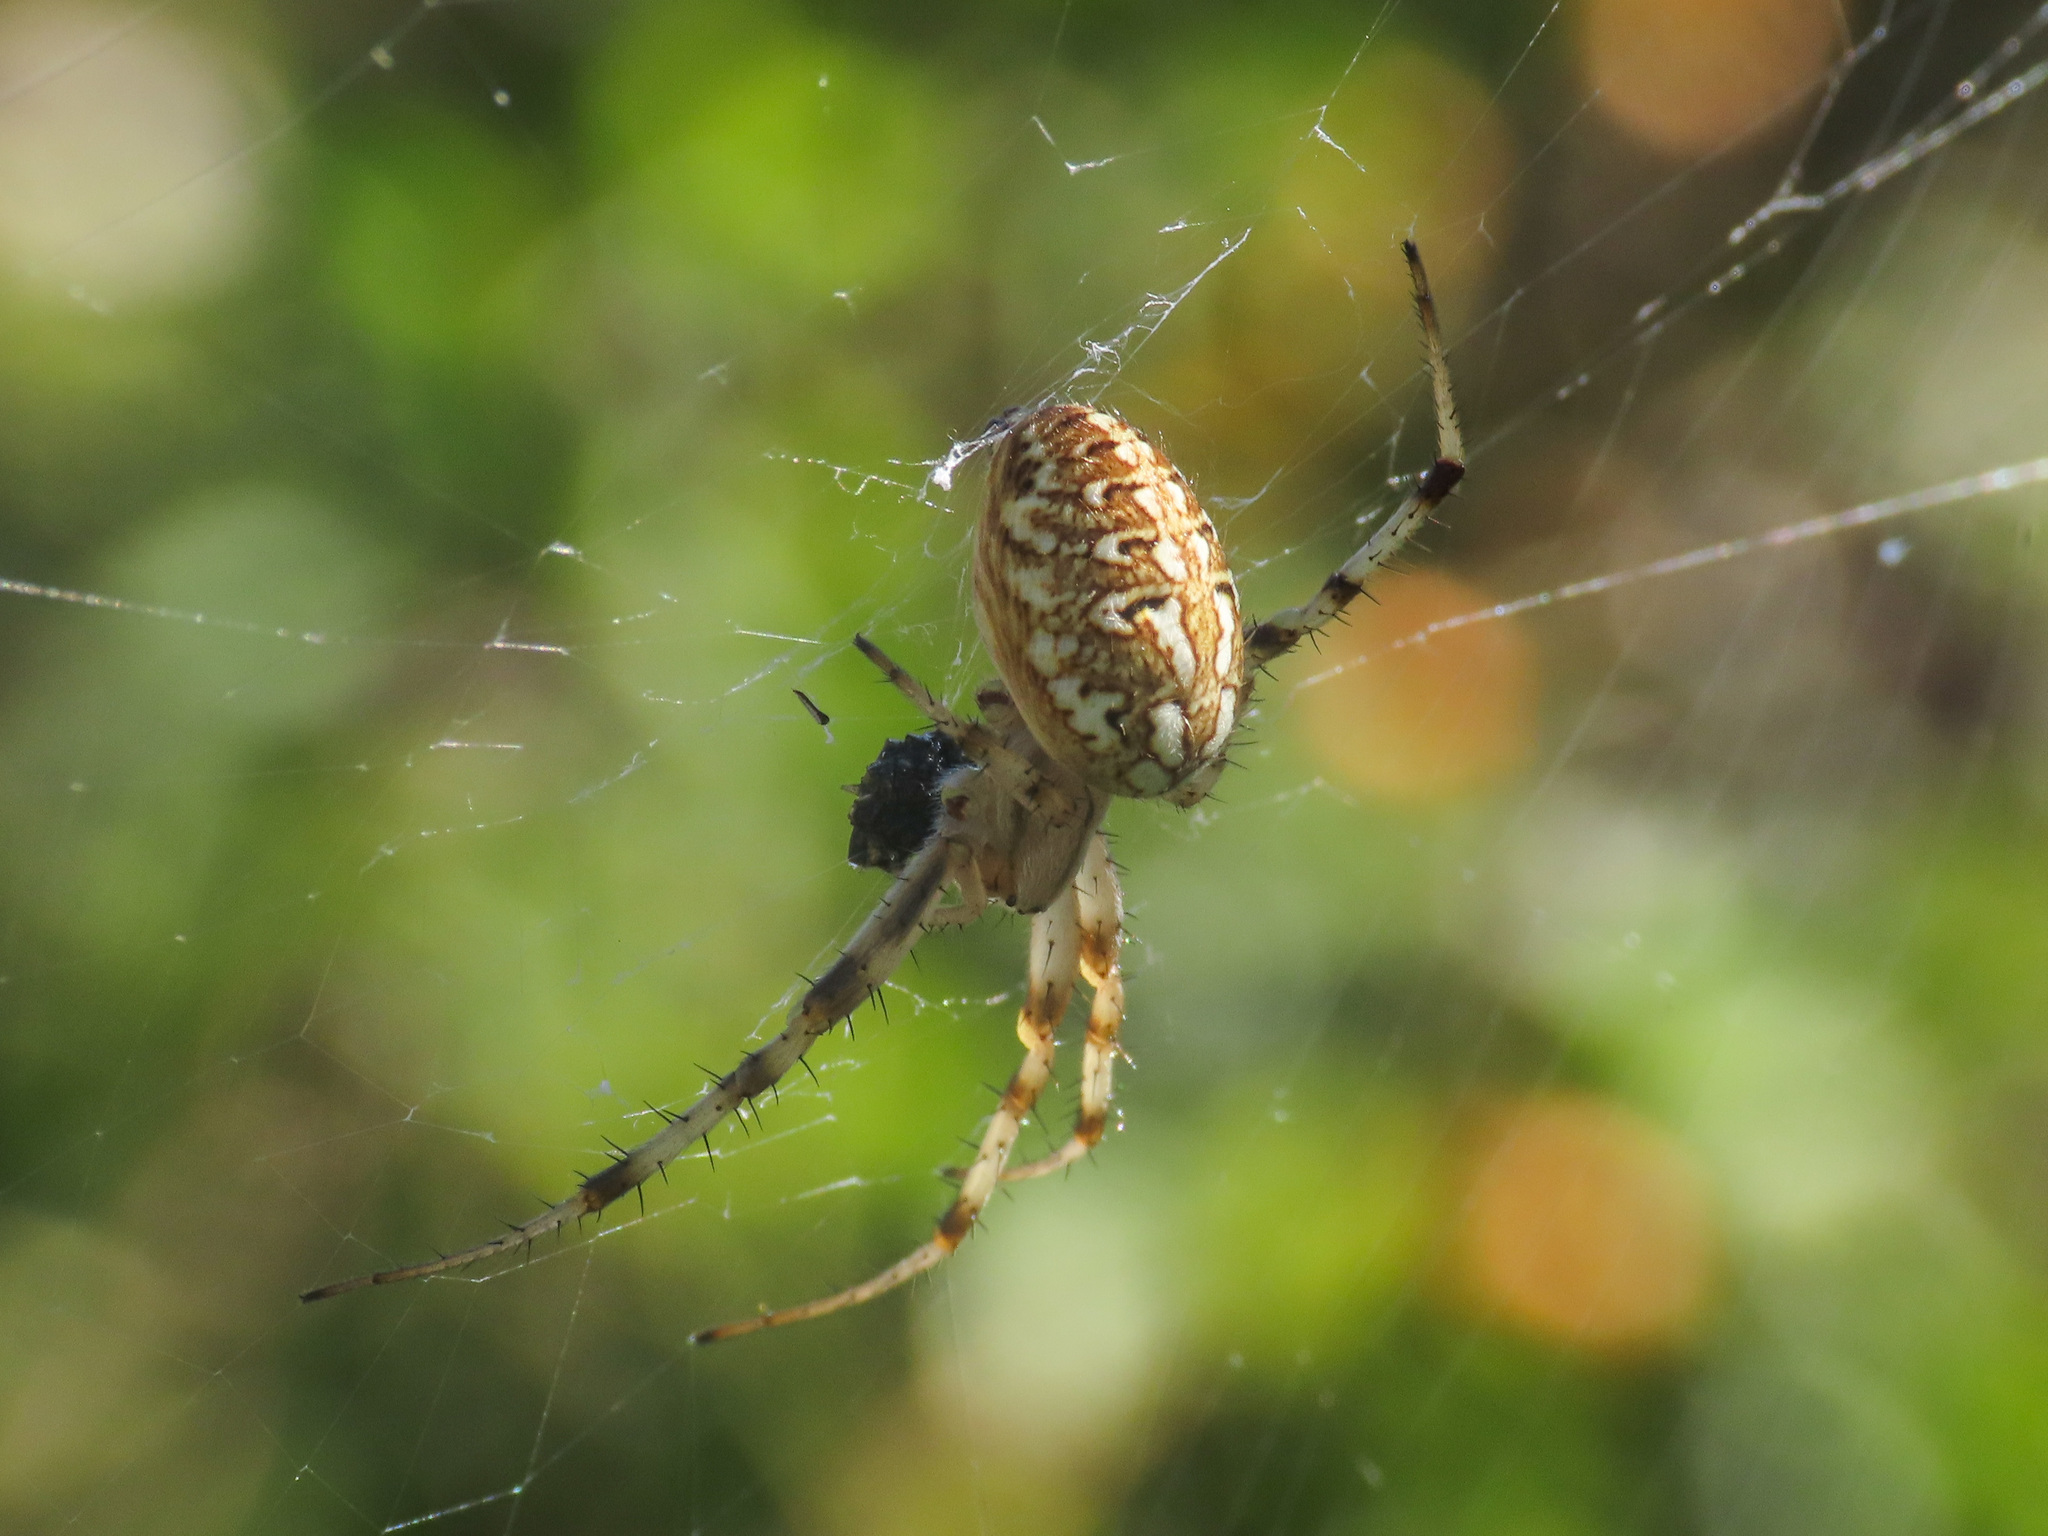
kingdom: Animalia
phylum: Arthropoda
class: Arachnida
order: Araneae
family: Araneidae
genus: Neoscona
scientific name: Neoscona byzanthina
